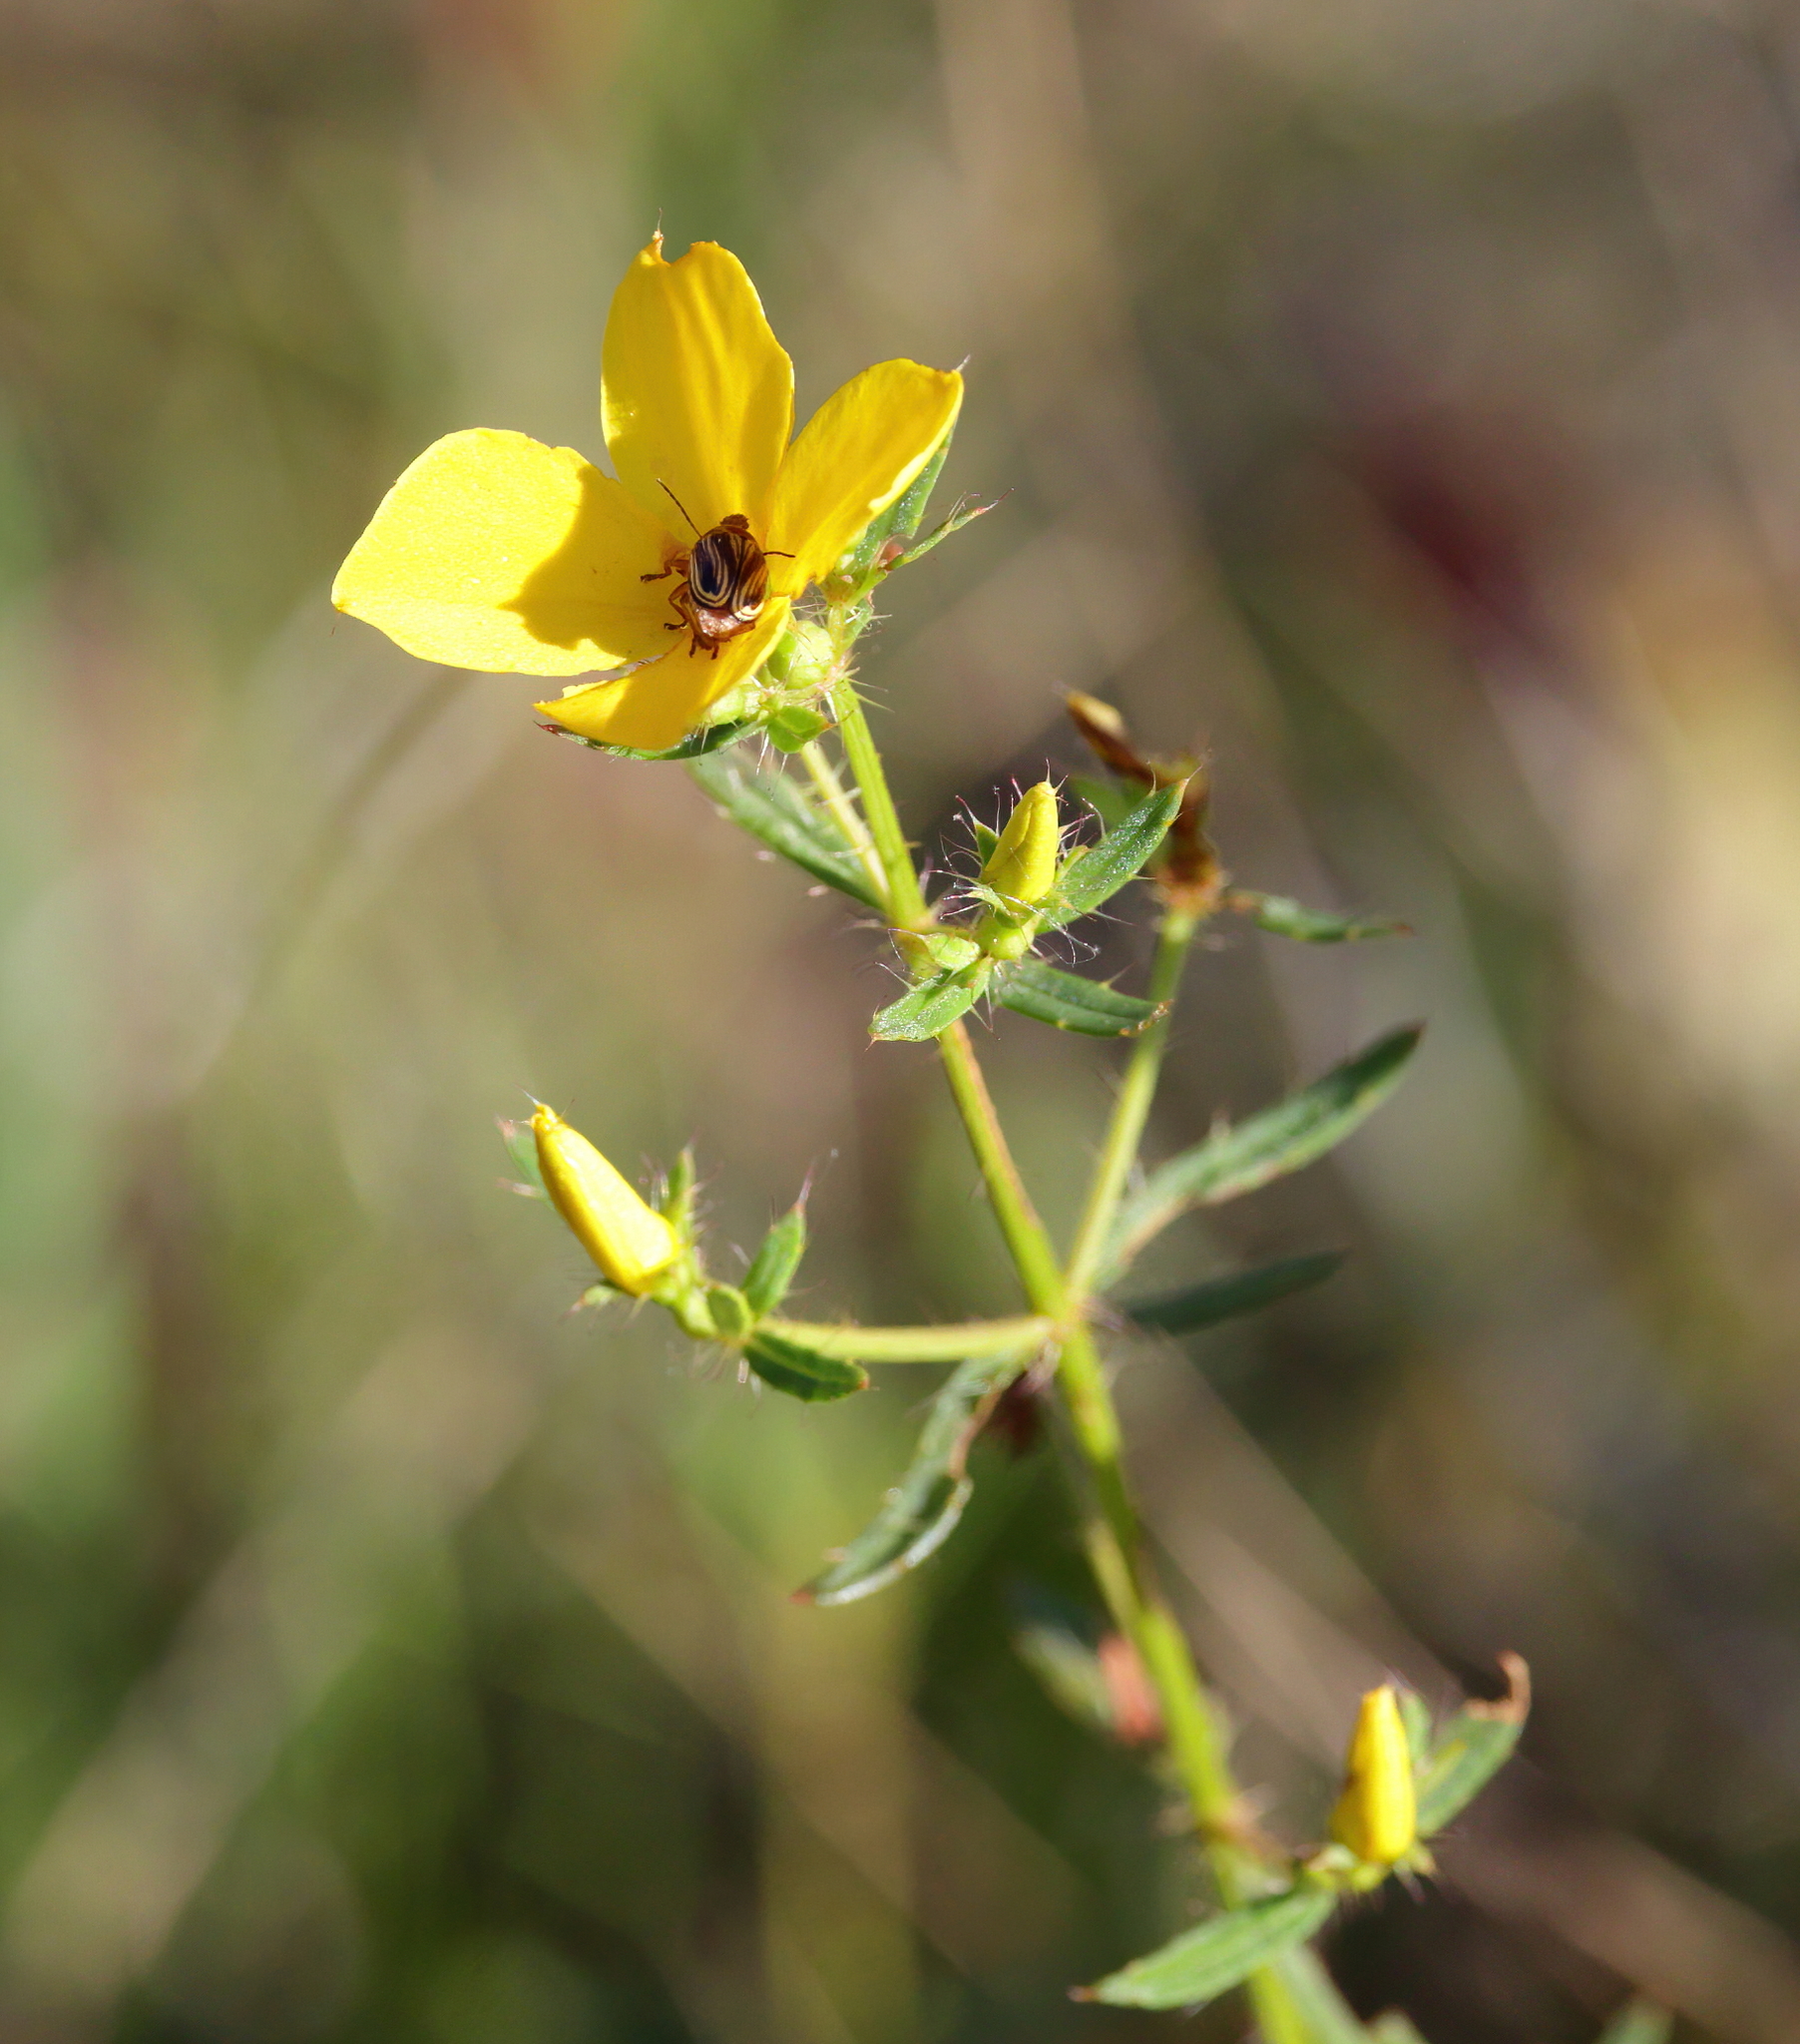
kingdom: Plantae
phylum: Tracheophyta
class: Magnoliopsida
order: Myrtales
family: Melastomataceae
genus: Rhexia
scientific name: Rhexia lutea
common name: Golden meadow-beauty
